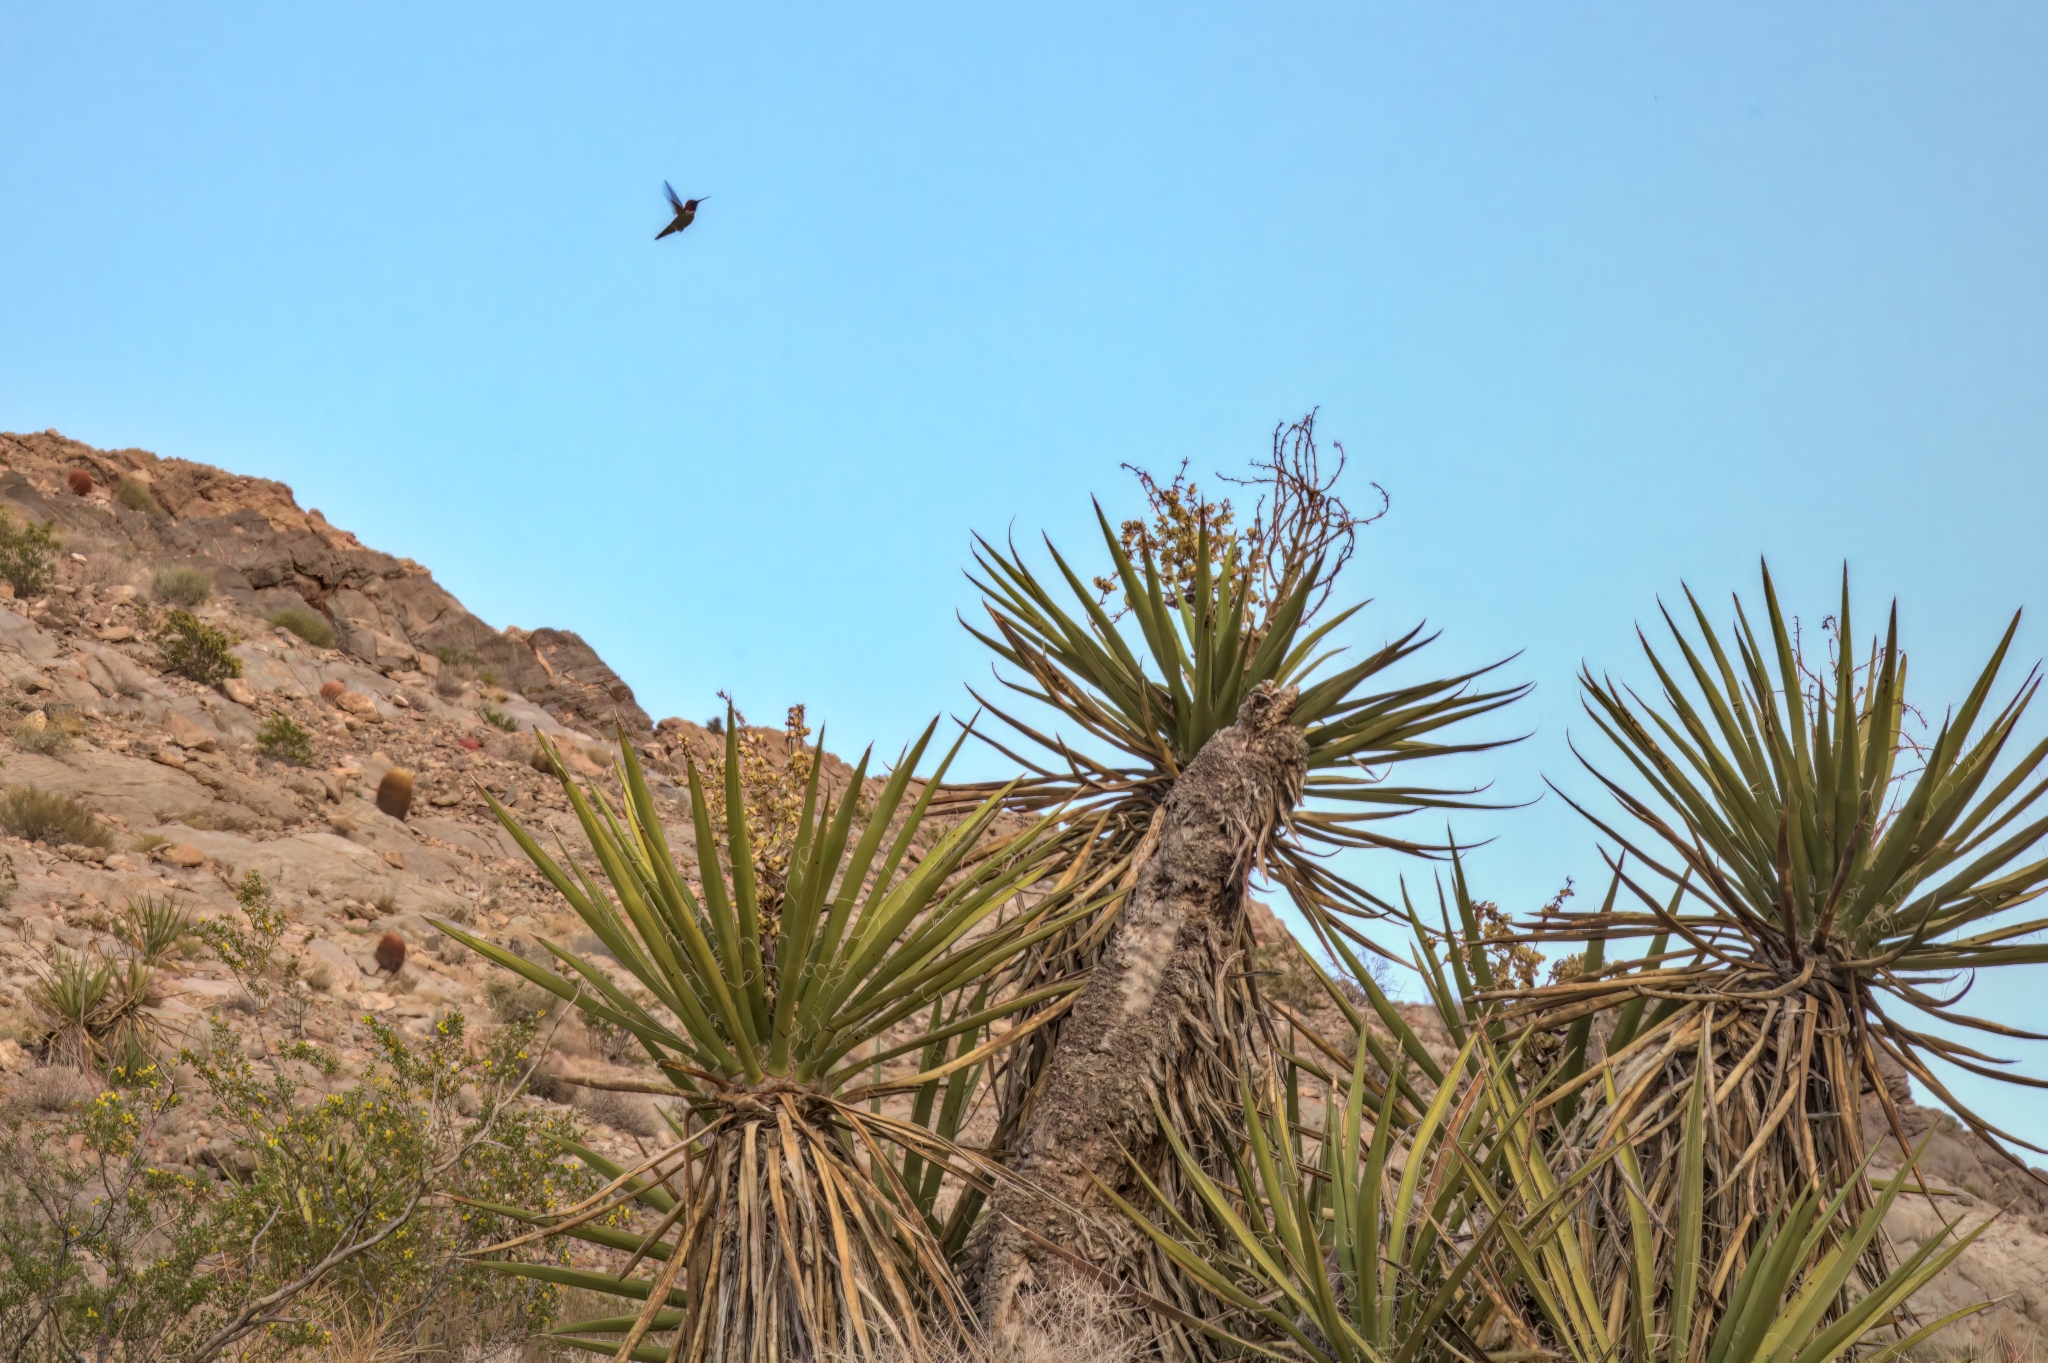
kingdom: Animalia
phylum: Chordata
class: Aves
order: Apodiformes
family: Trochilidae
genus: Calypte
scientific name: Calypte anna
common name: Anna's hummingbird
